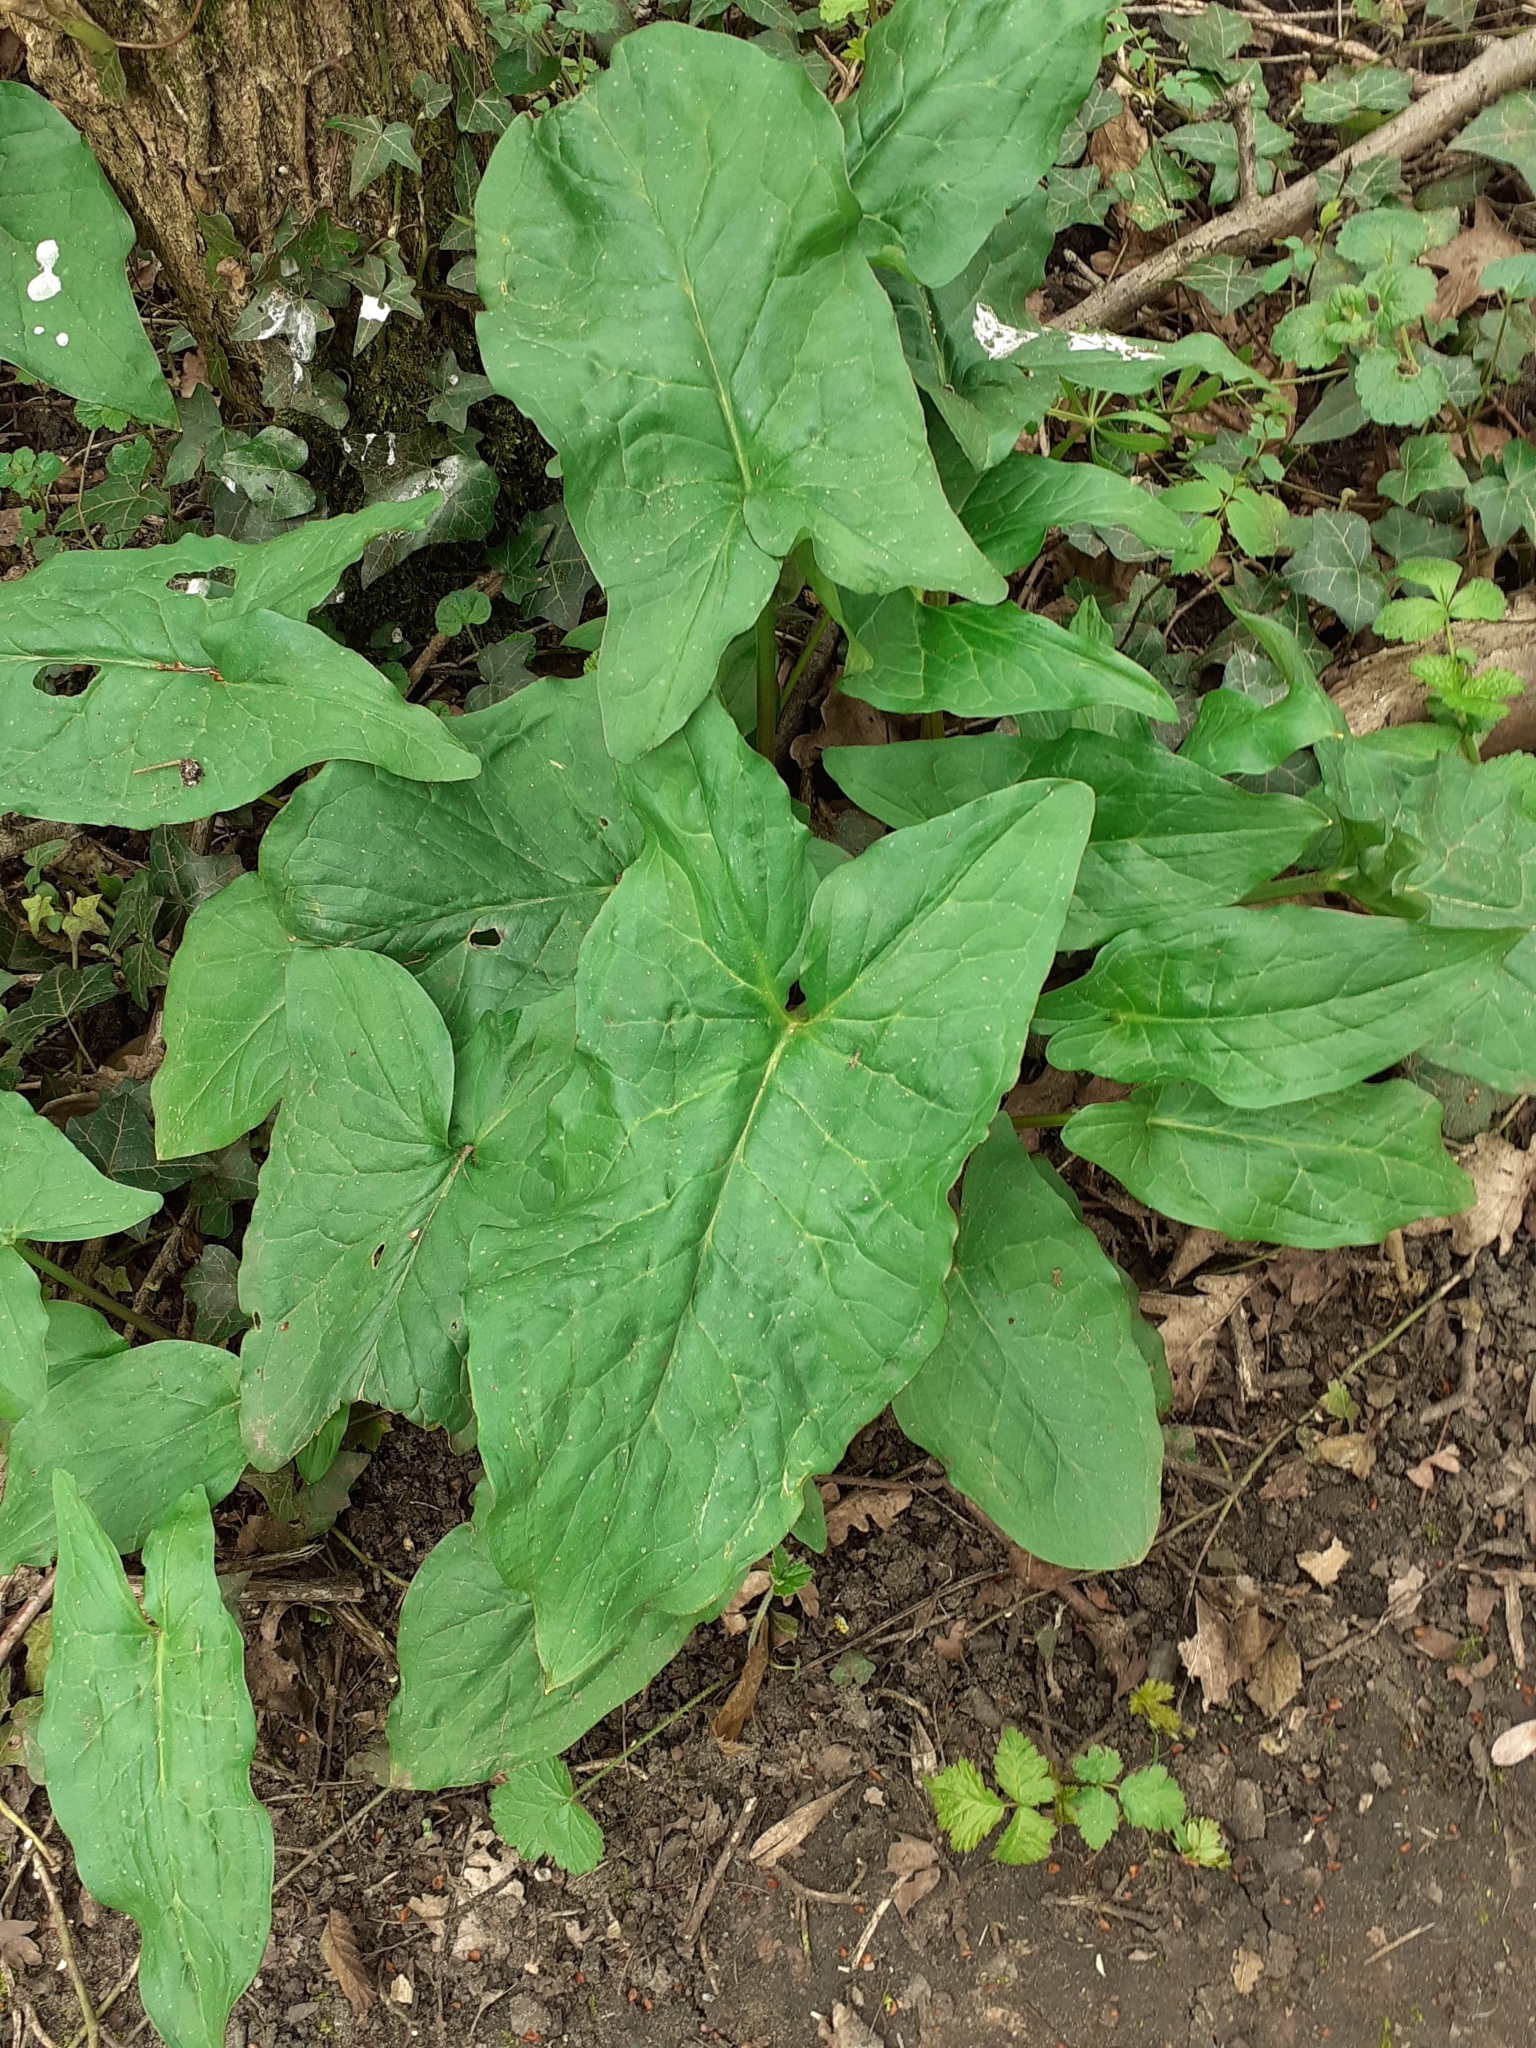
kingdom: Plantae
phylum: Tracheophyta
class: Liliopsida
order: Alismatales
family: Araceae
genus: Arum
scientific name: Arum maculatum
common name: Lords-and-ladies
